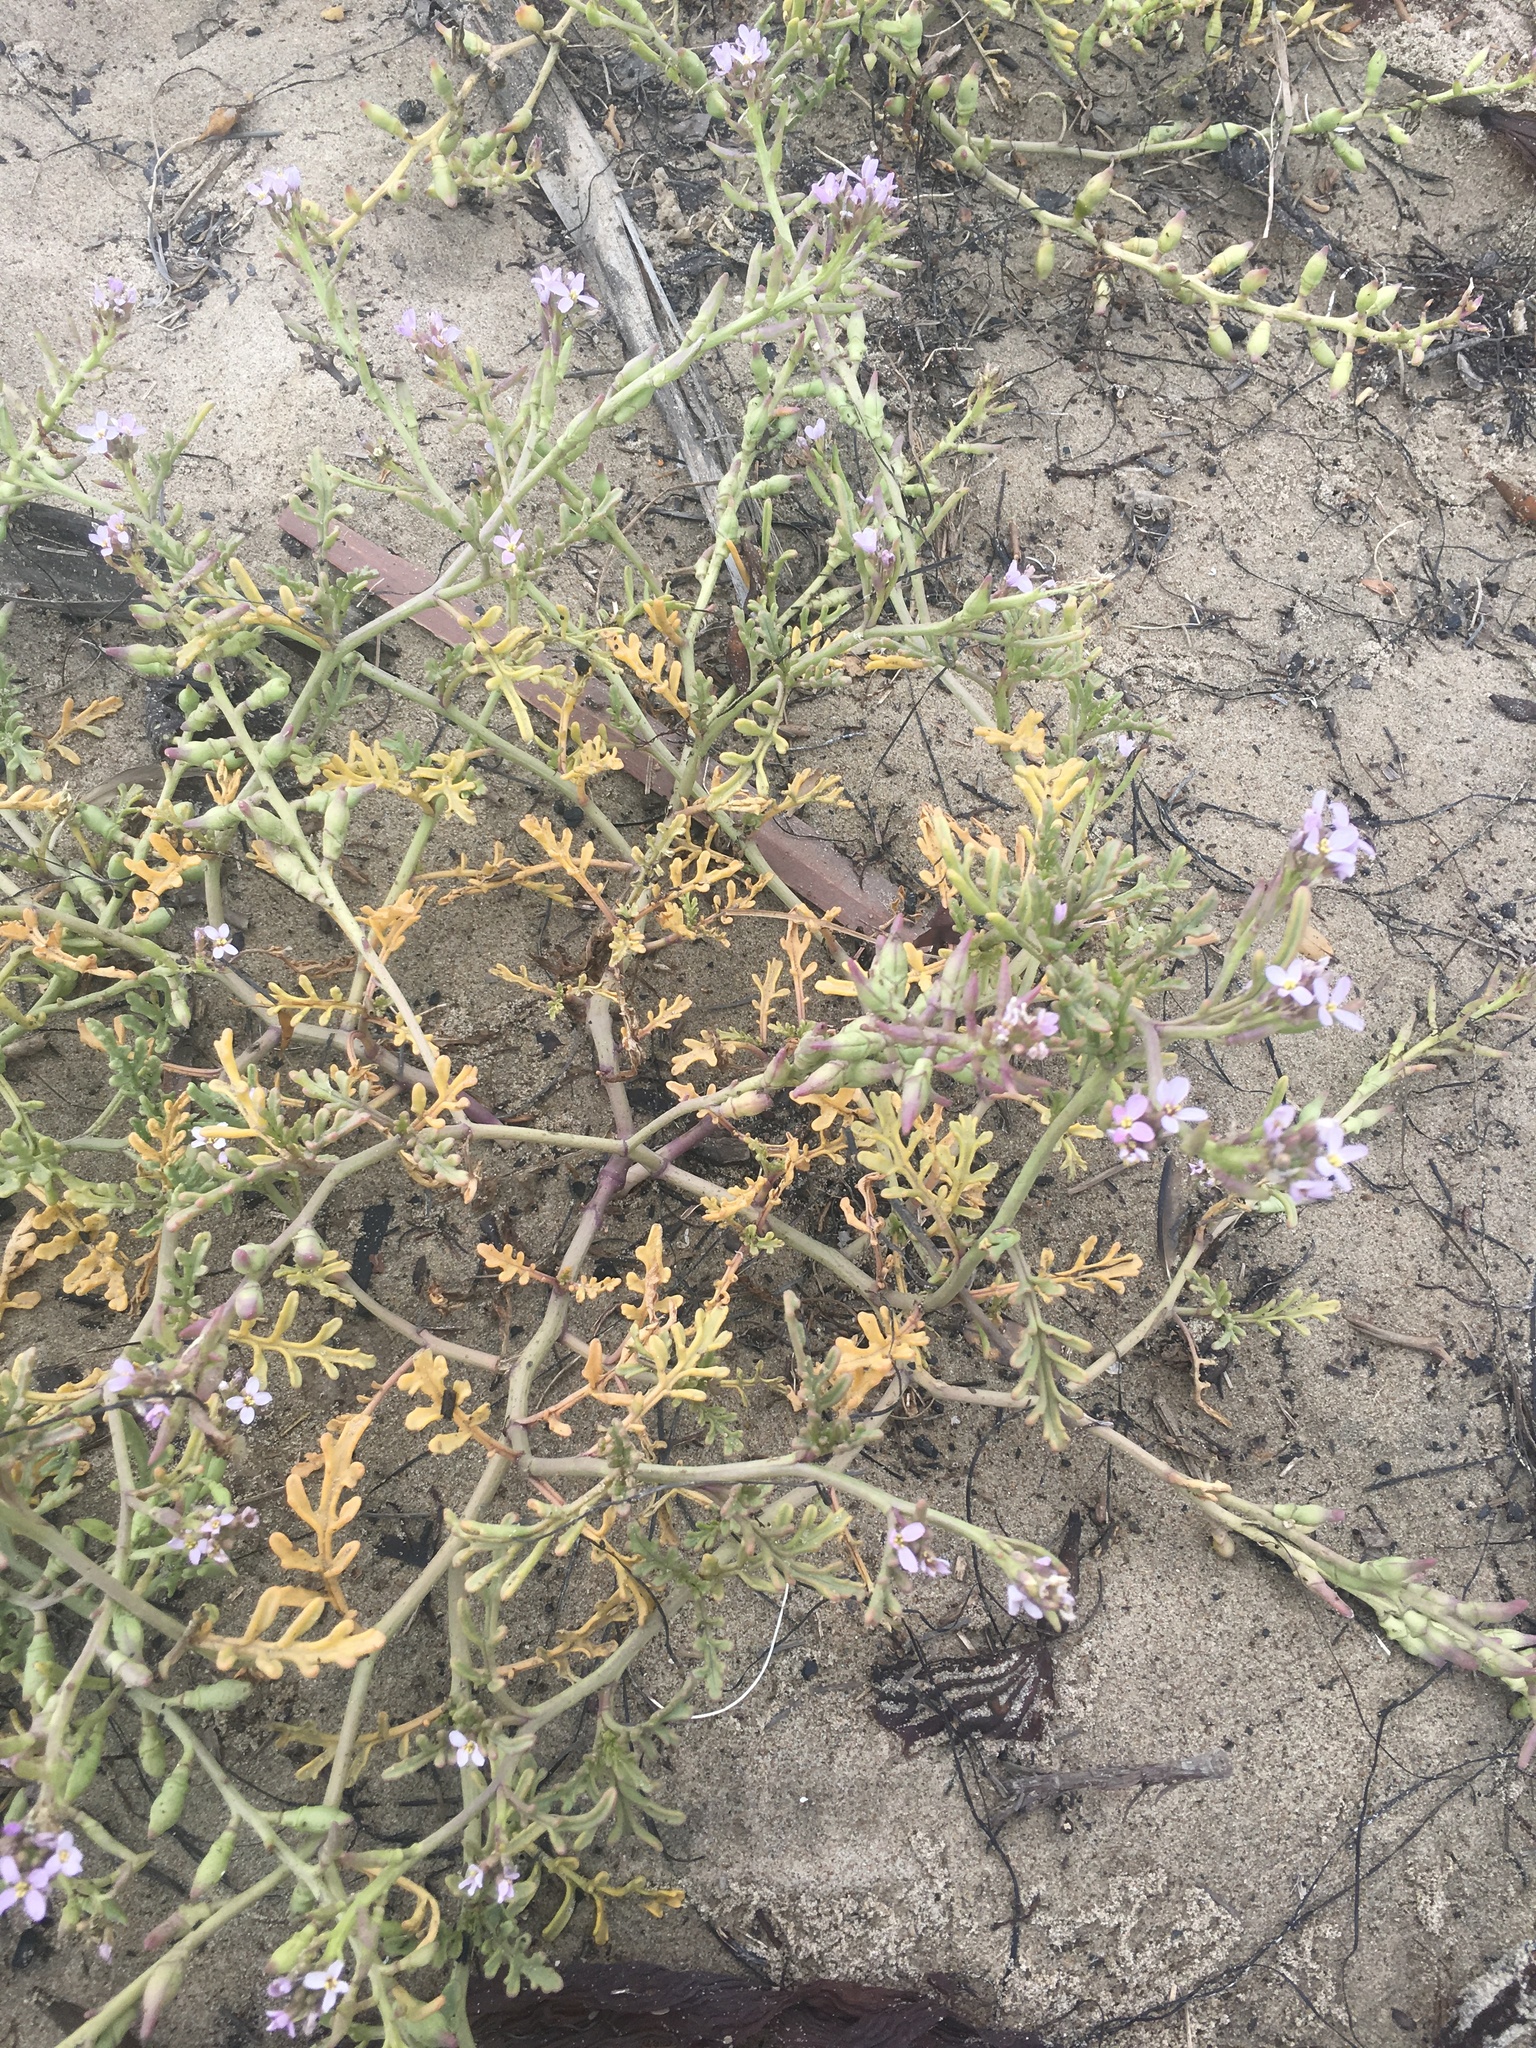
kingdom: Plantae
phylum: Tracheophyta
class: Magnoliopsida
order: Brassicales
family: Brassicaceae
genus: Cakile
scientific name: Cakile maritima
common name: Sea rocket
